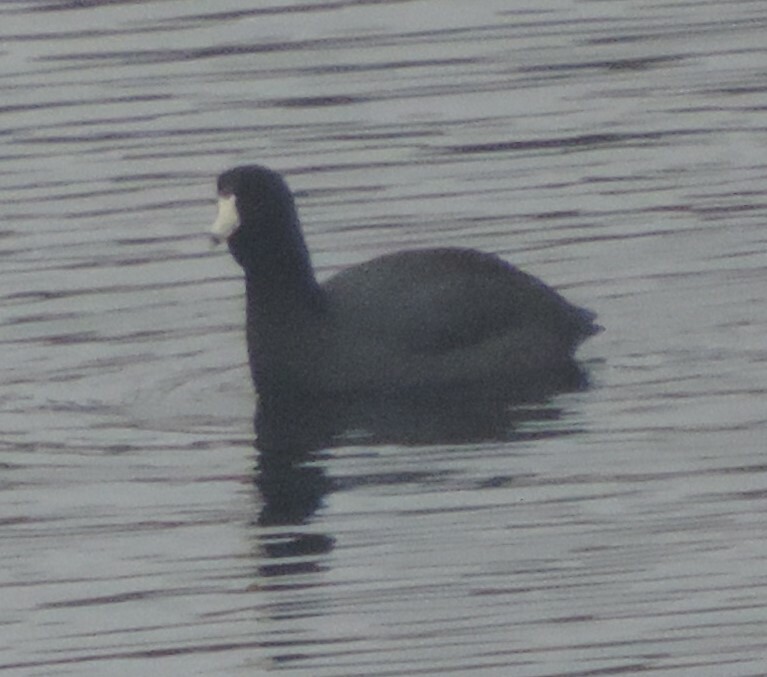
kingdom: Animalia
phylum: Chordata
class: Aves
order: Gruiformes
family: Rallidae
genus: Fulica
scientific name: Fulica americana
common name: American coot
